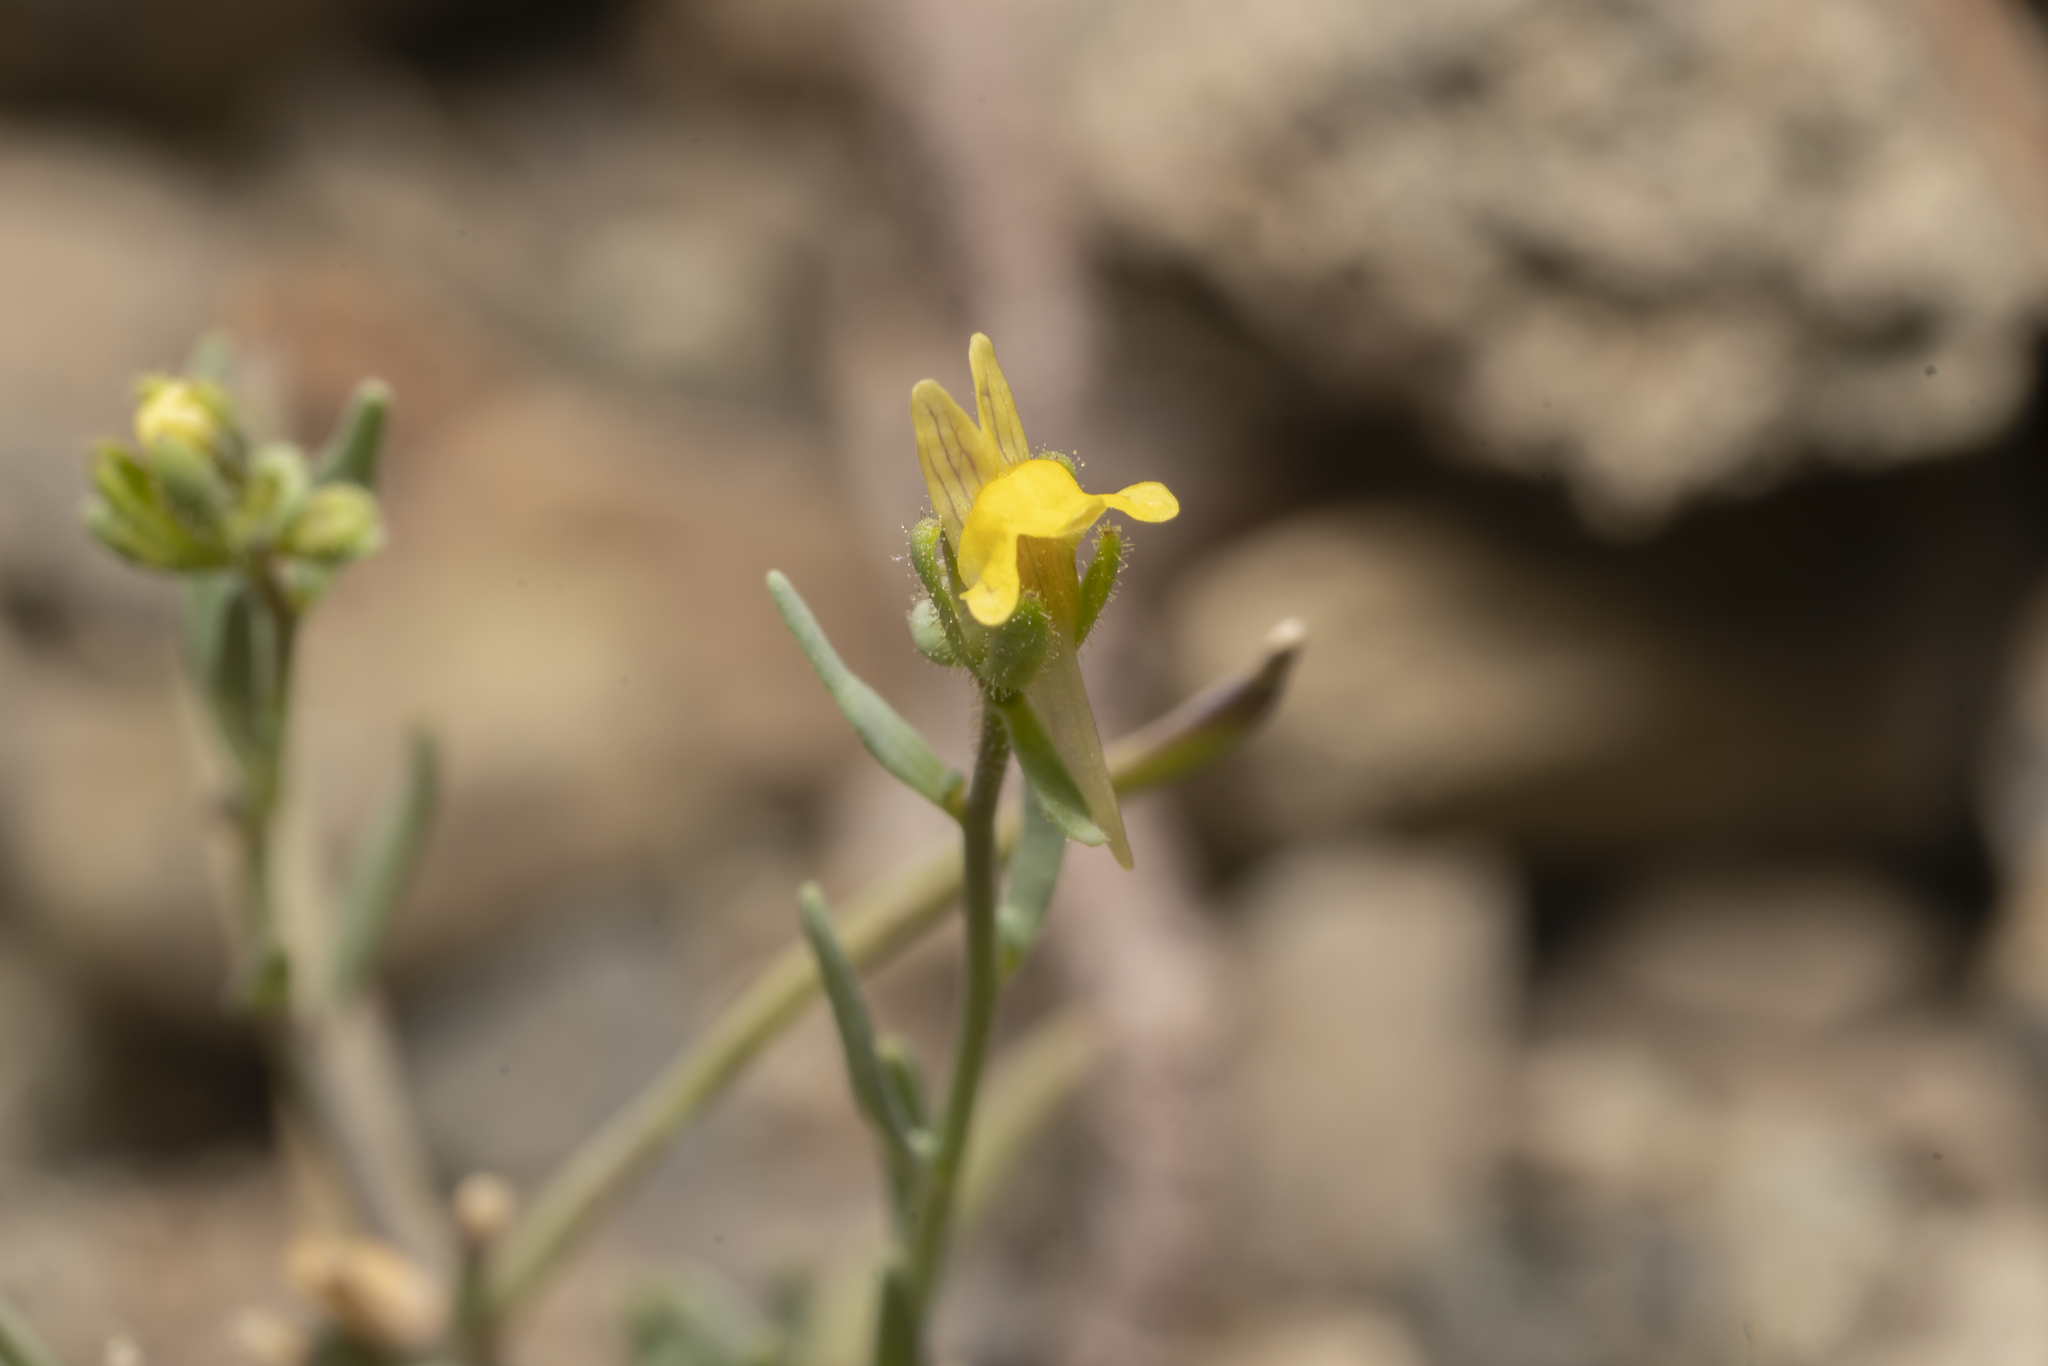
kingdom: Plantae
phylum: Tracheophyta
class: Magnoliopsida
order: Lamiales
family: Plantaginaceae
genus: Linaria
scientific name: Linaria simplex
